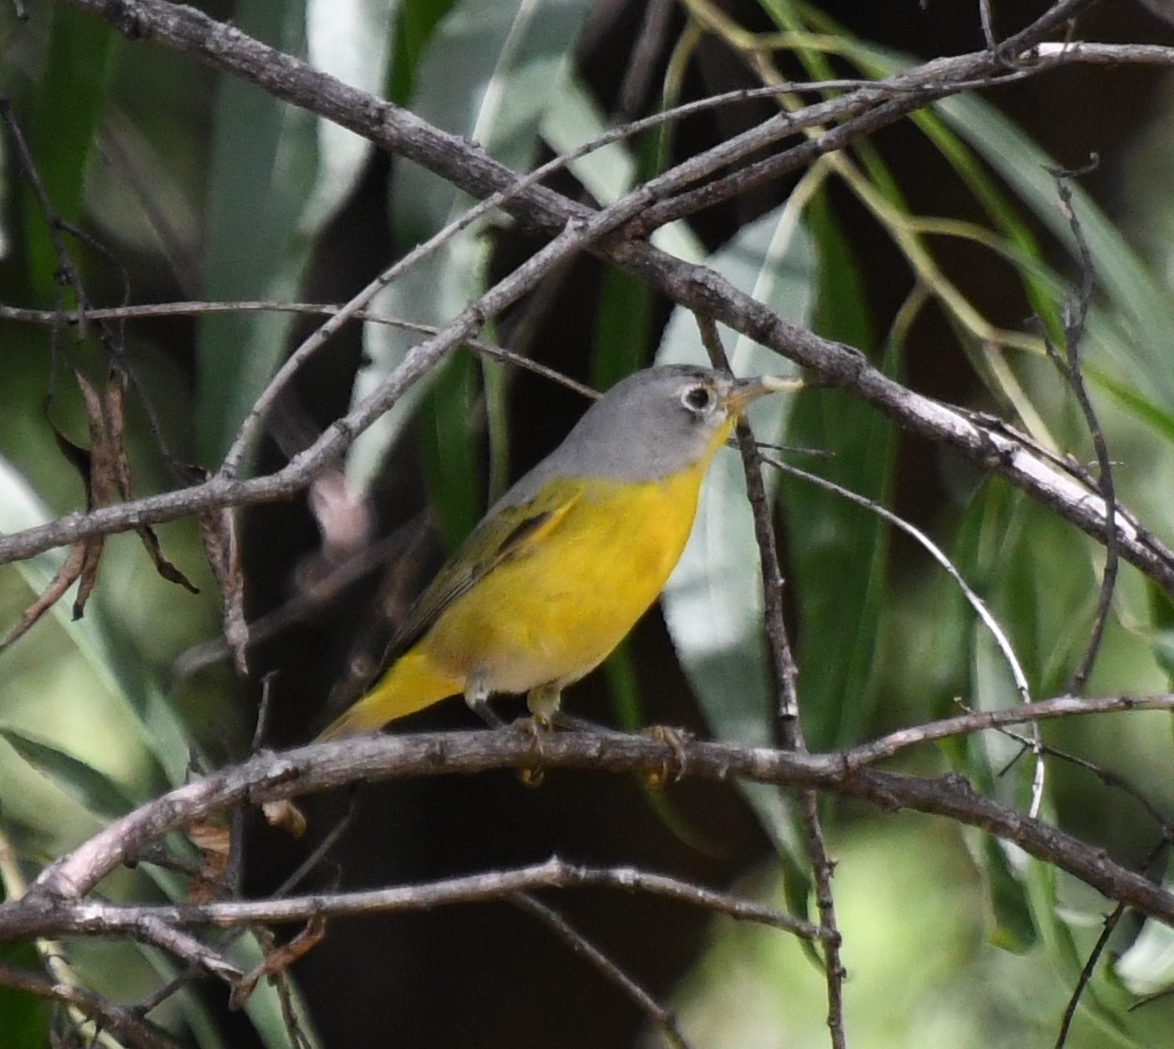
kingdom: Animalia
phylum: Chordata
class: Aves
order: Passeriformes
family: Parulidae
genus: Leiothlypis
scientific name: Leiothlypis ruficapilla
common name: Nashville warbler
